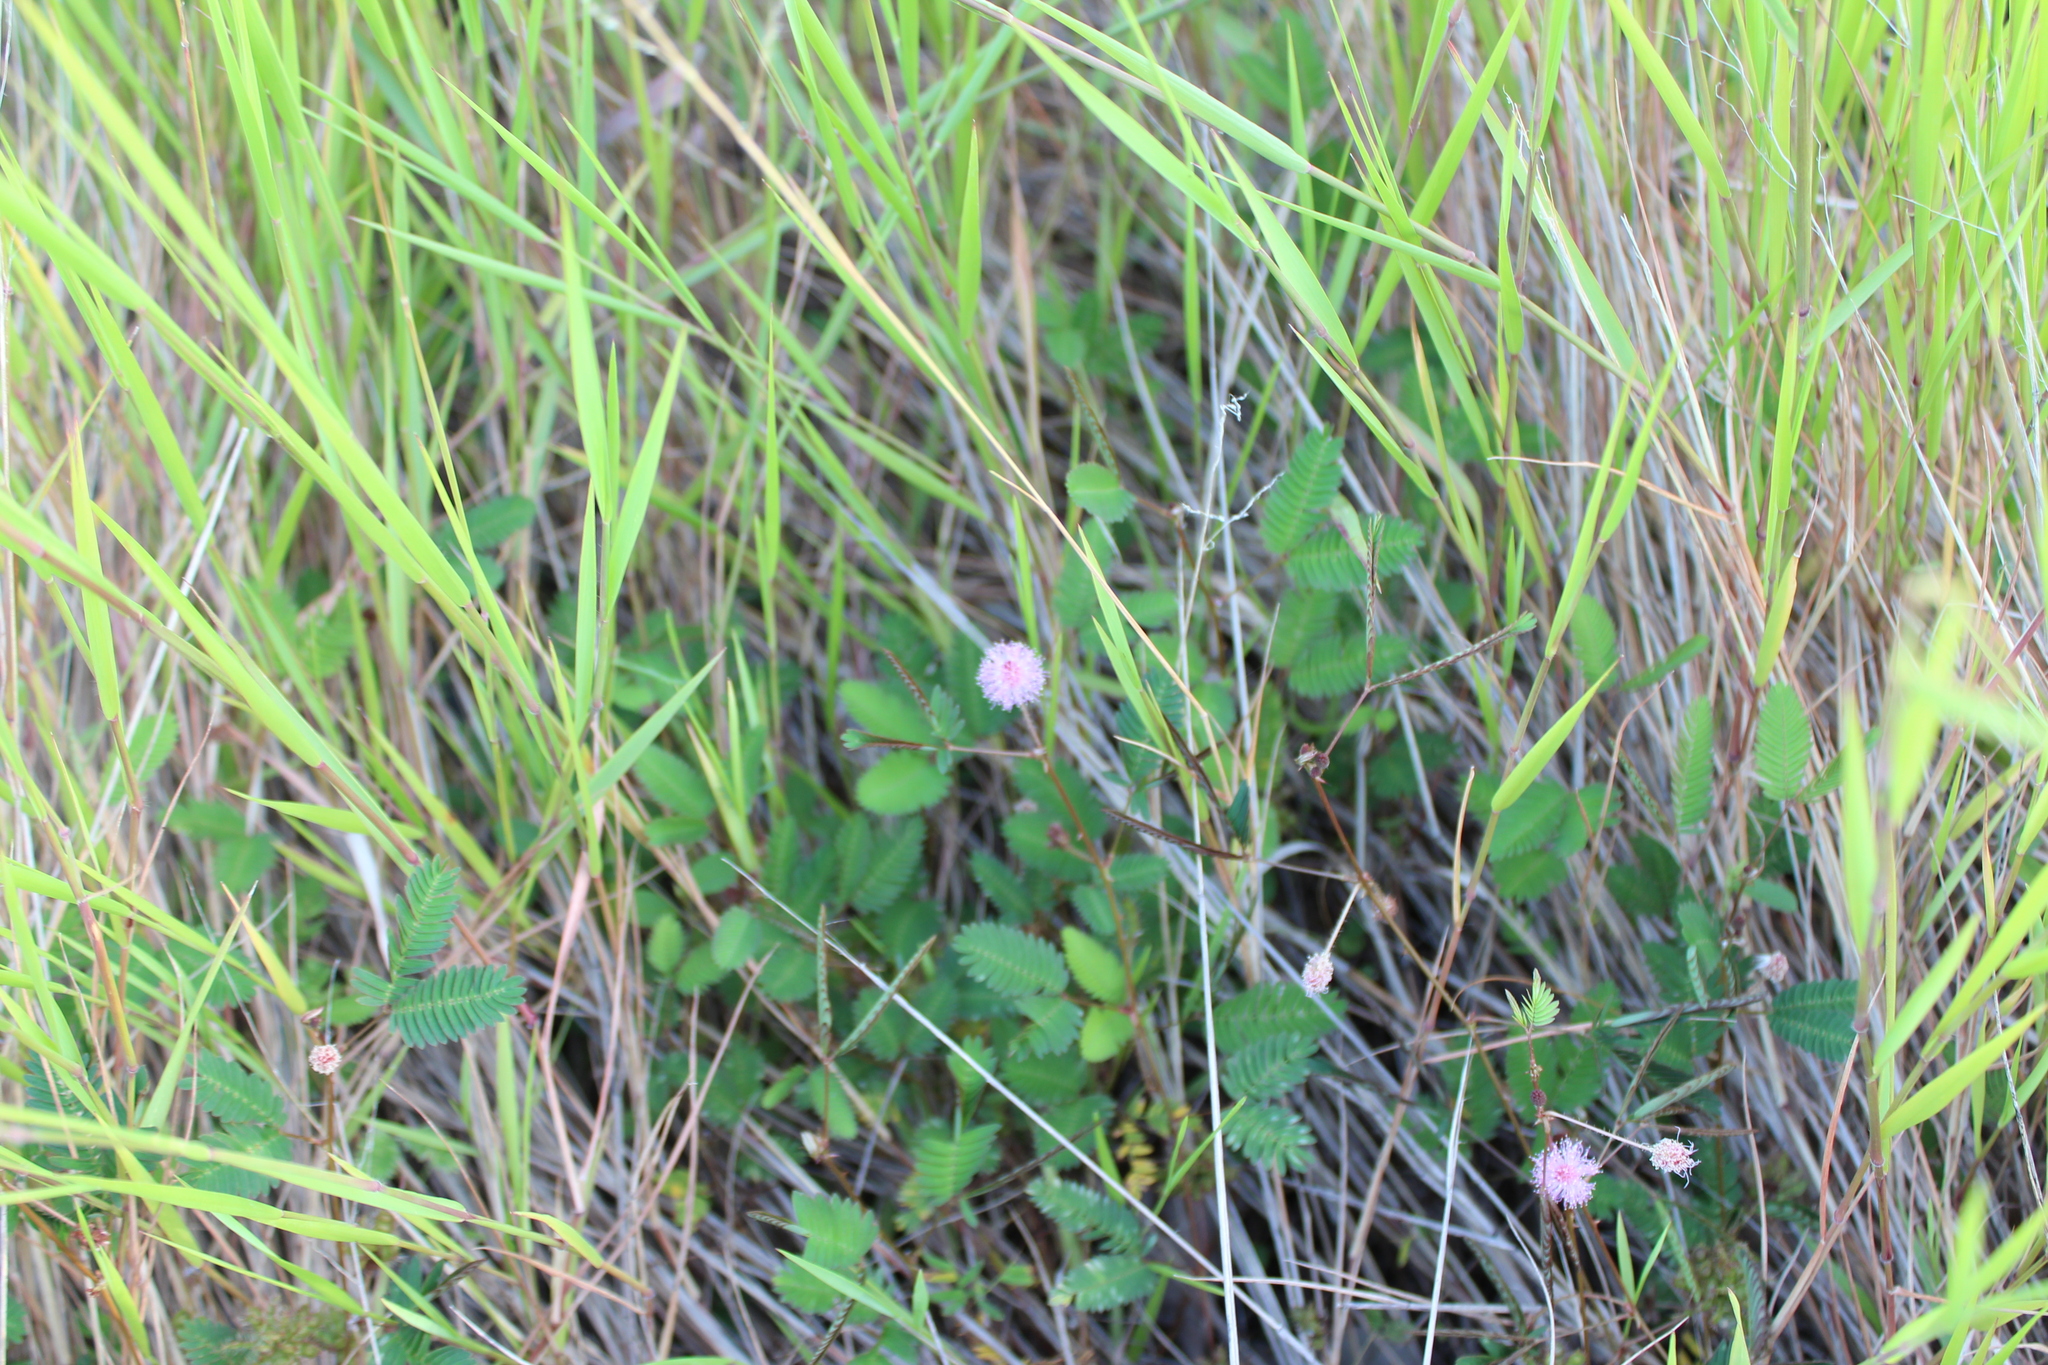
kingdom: Plantae
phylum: Tracheophyta
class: Magnoliopsida
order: Fabales
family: Fabaceae
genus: Mimosa
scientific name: Mimosa pudica
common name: Sensitive plant
